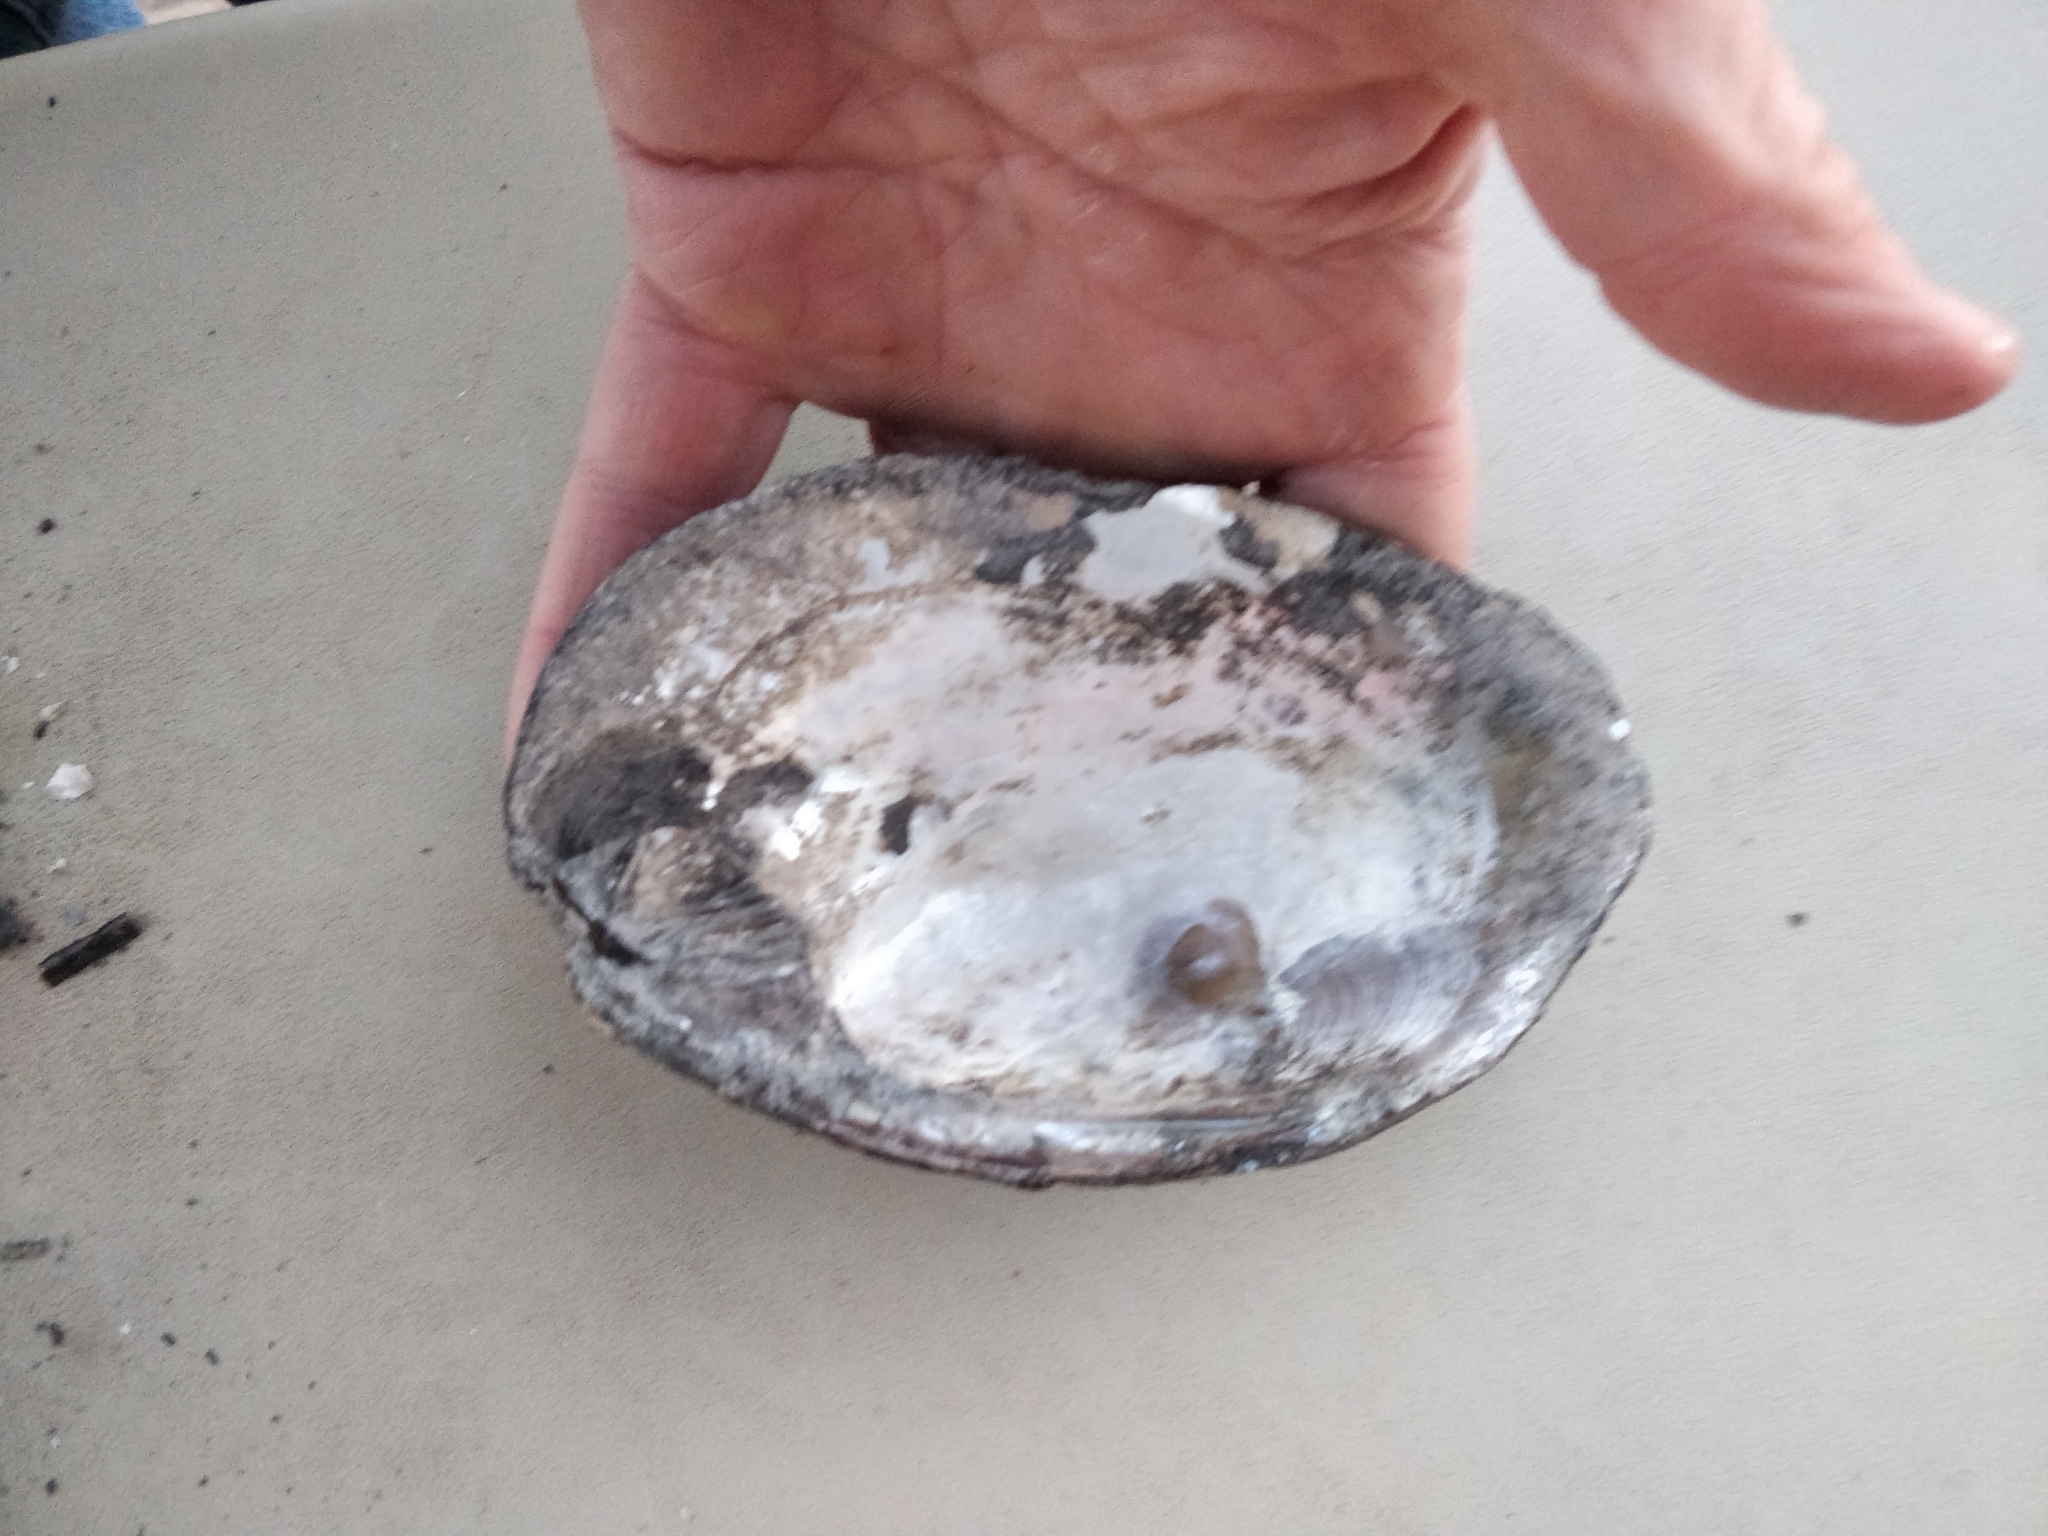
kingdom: Animalia
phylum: Mollusca
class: Bivalvia
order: Unionida
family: Unionidae
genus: Amblema
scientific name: Amblema plicata
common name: Threeridge
